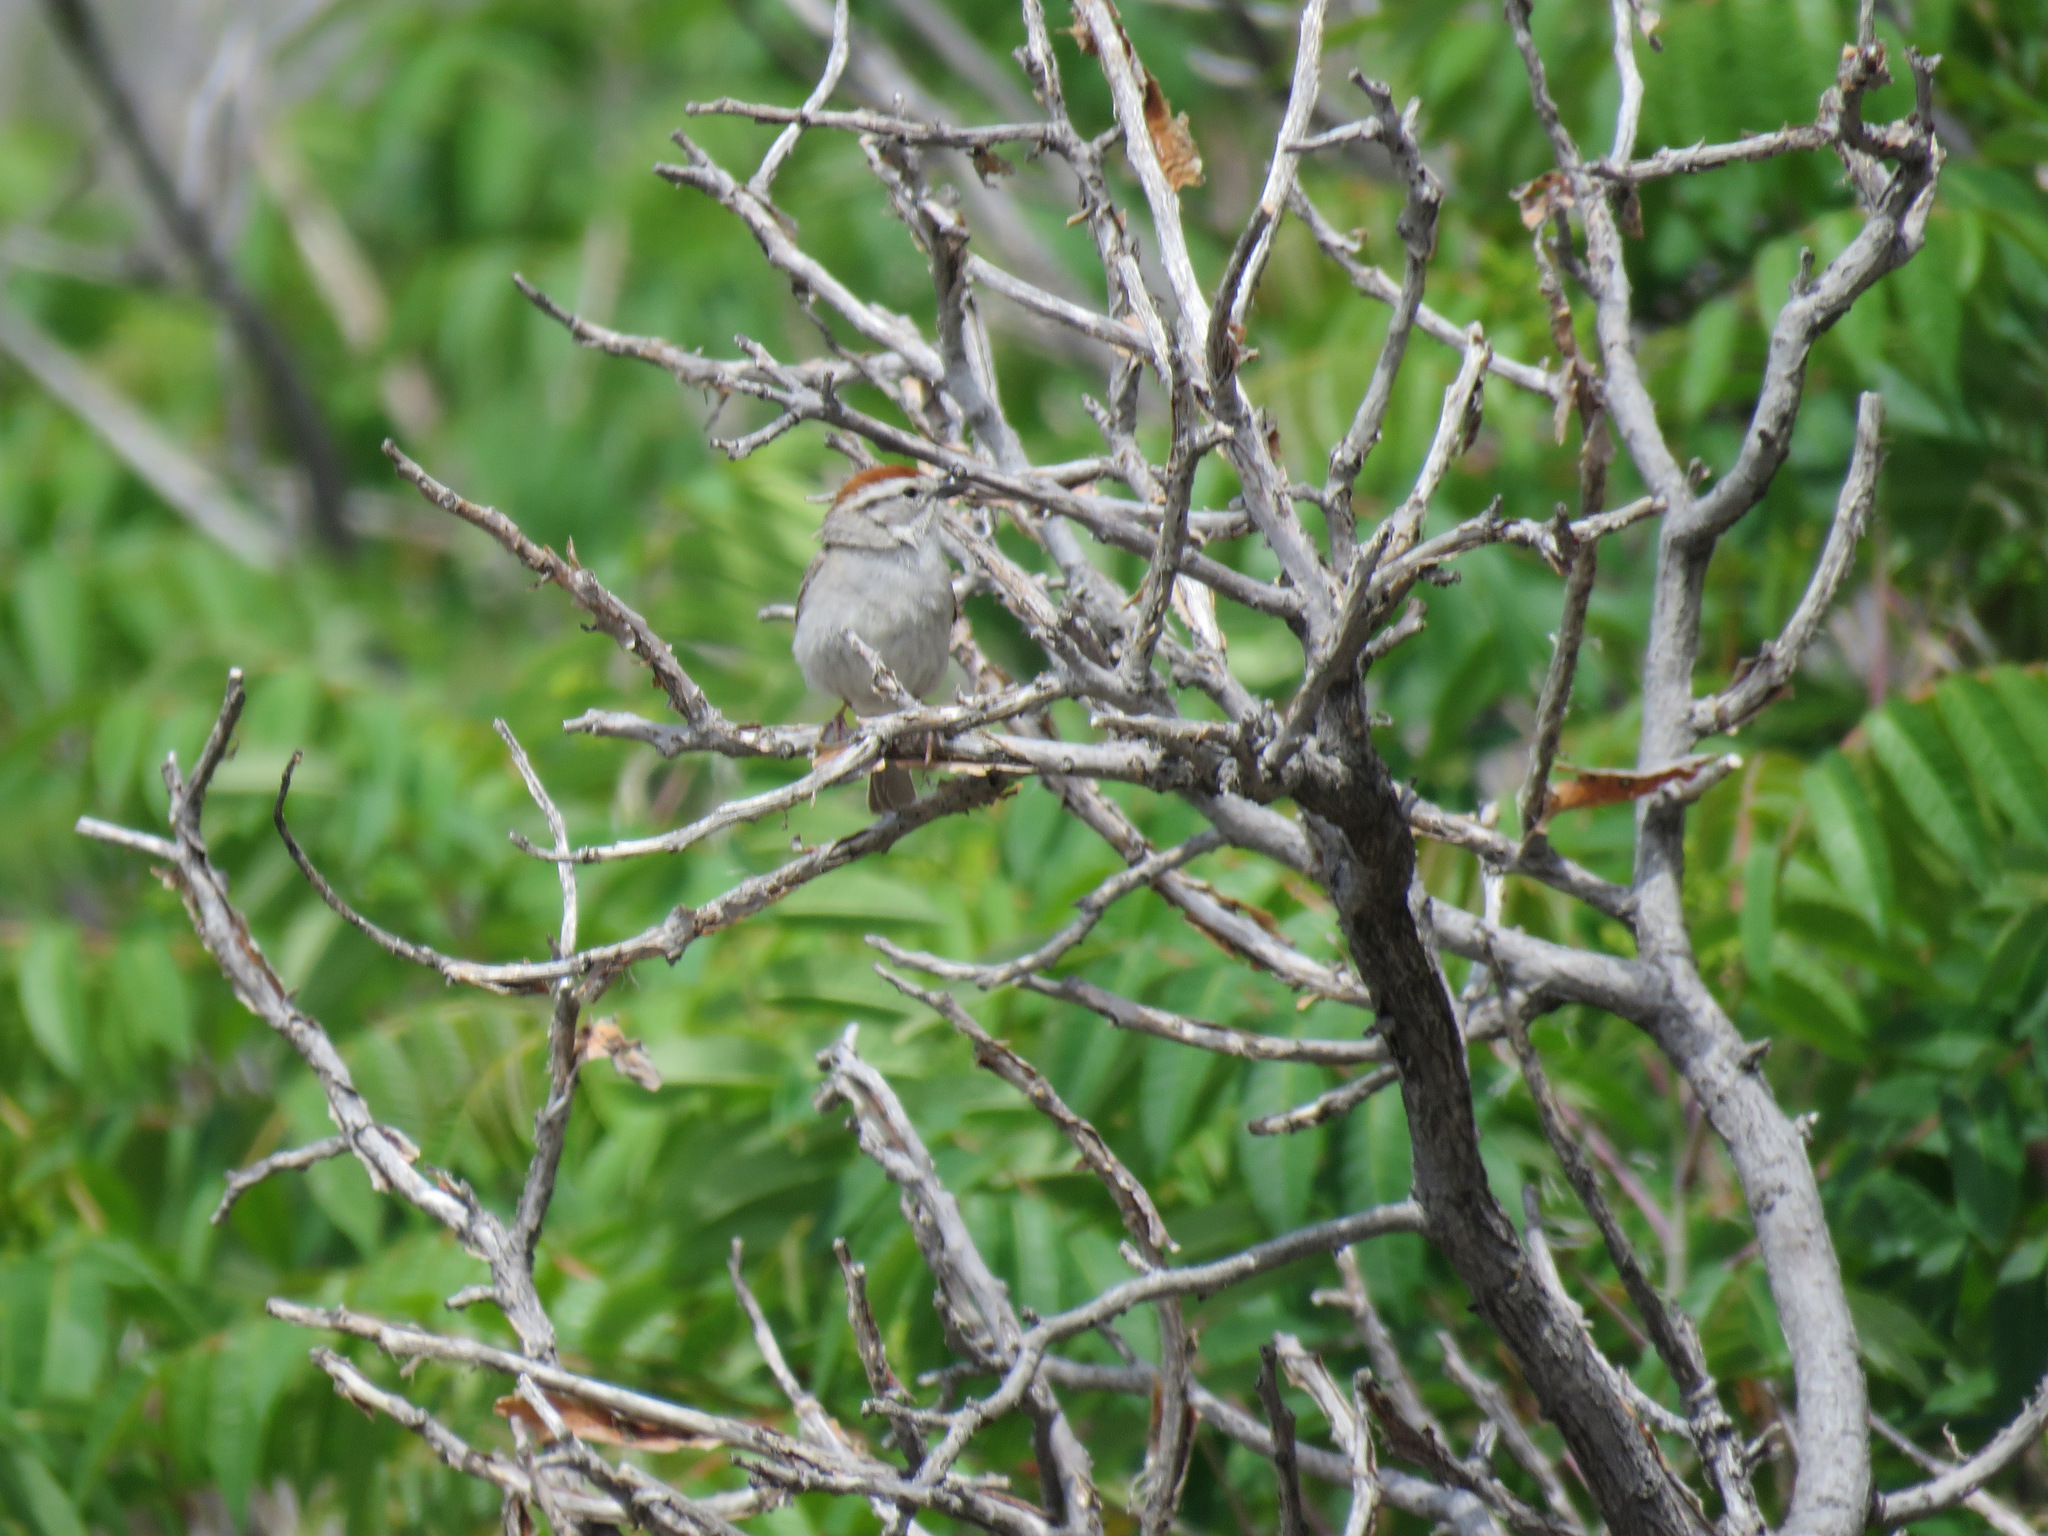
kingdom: Animalia
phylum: Chordata
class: Aves
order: Passeriformes
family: Passerellidae
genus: Spizella
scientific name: Spizella passerina
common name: Chipping sparrow
